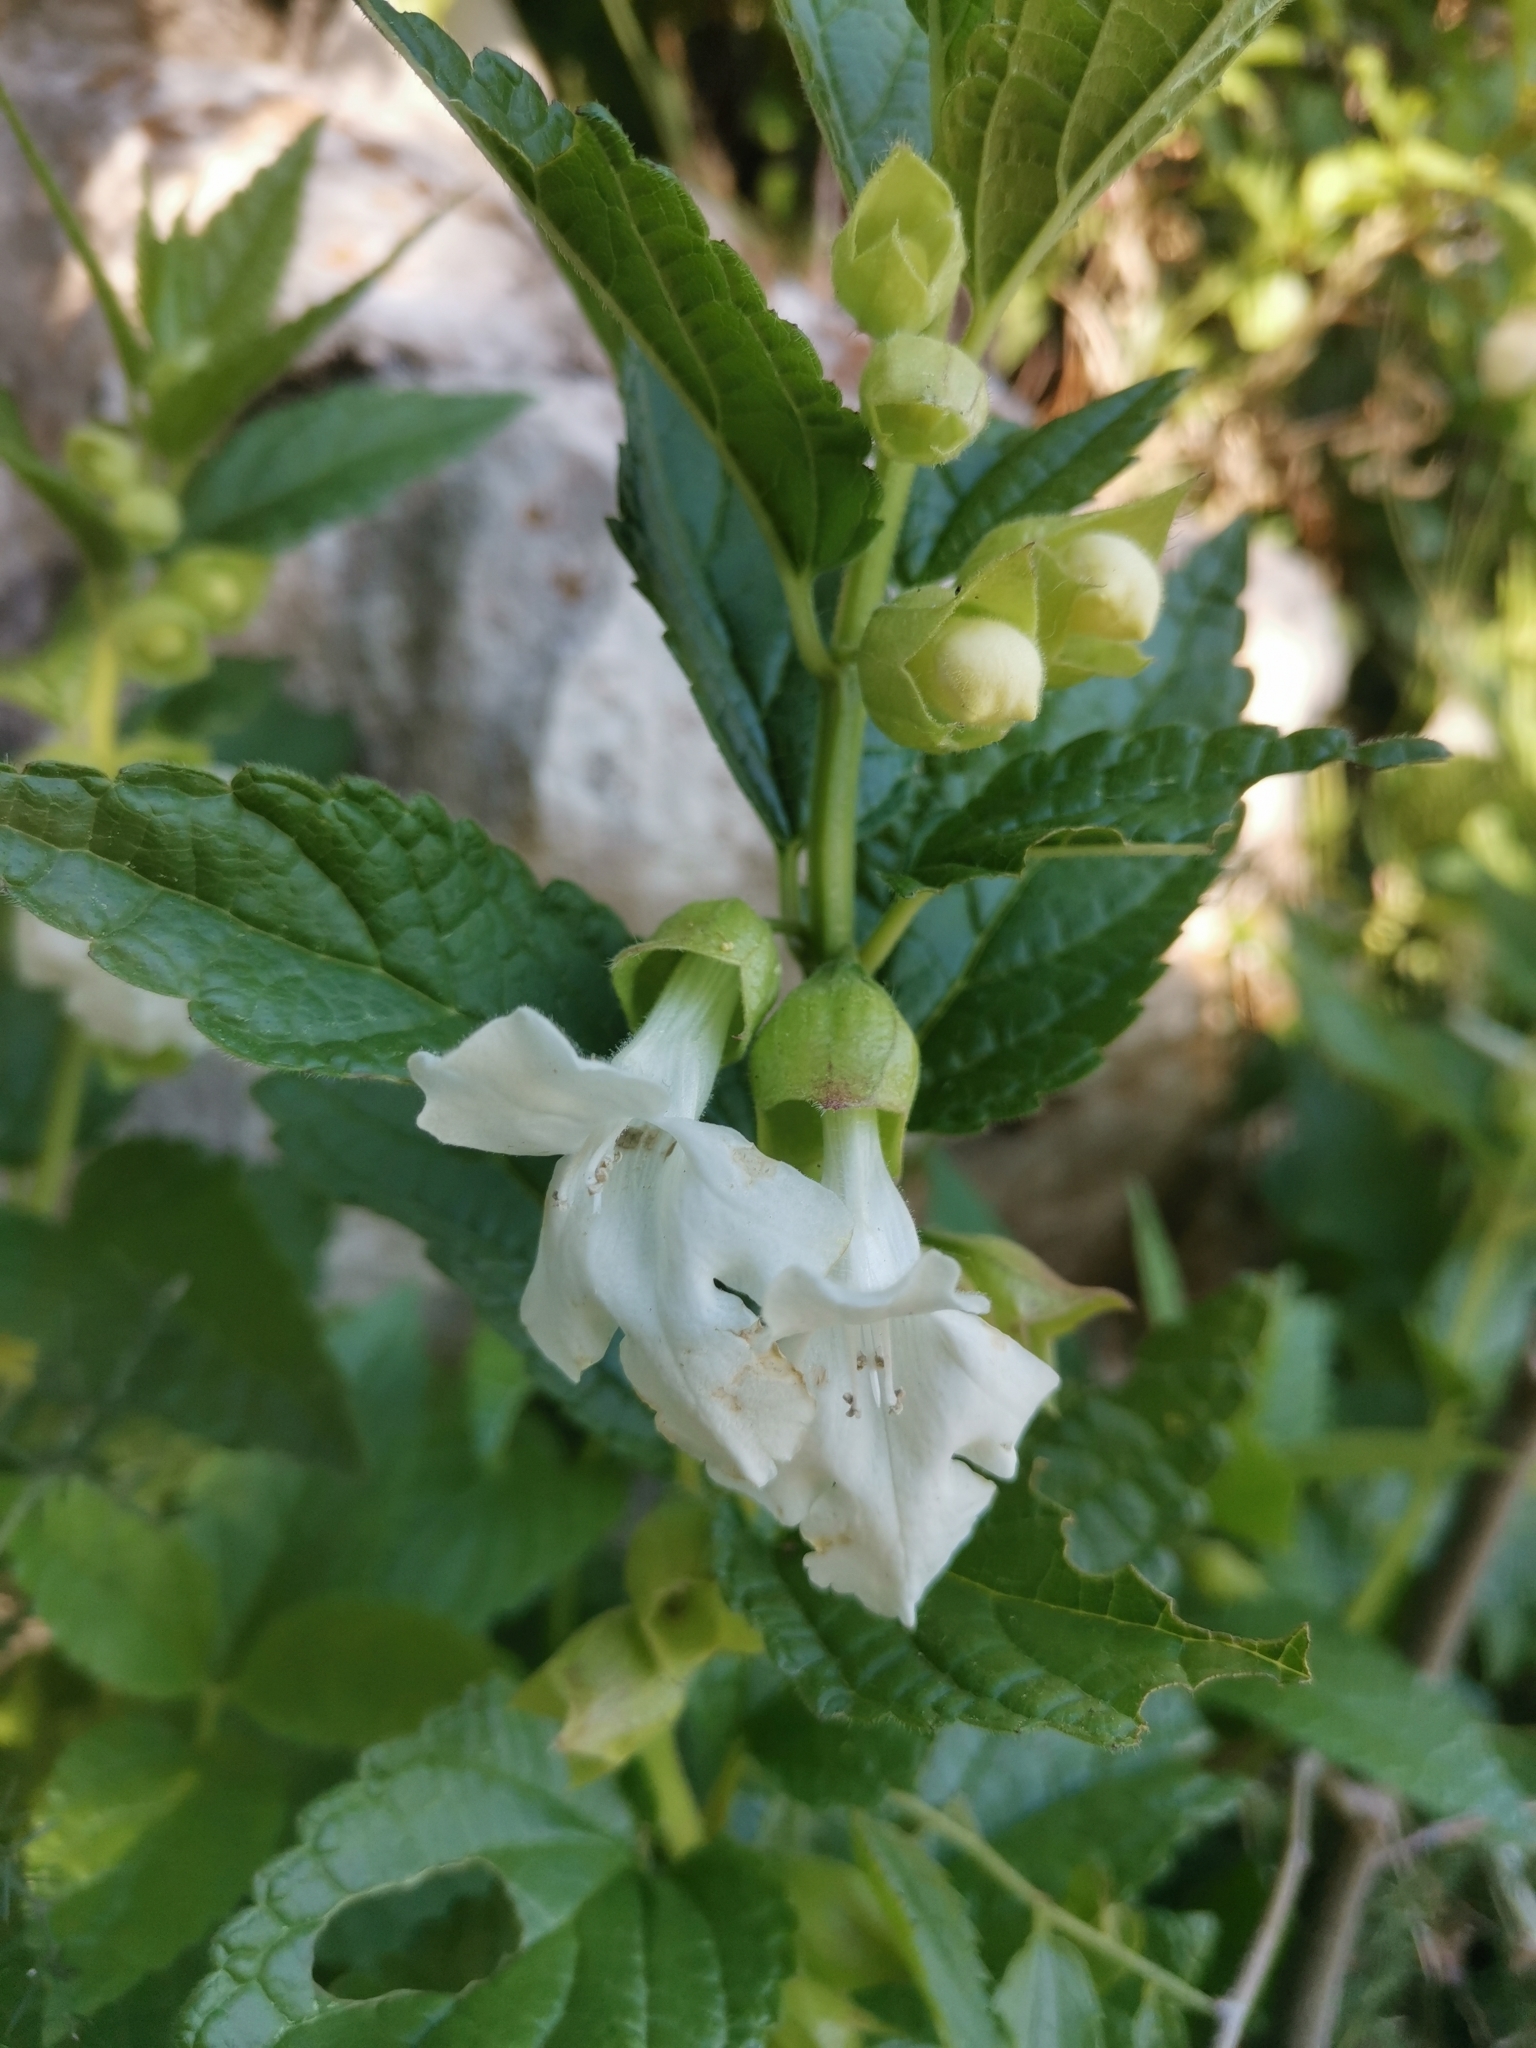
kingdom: Plantae
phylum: Tracheophyta
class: Magnoliopsida
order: Lamiales
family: Lamiaceae
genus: Melittis
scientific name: Melittis melissophyllum
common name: Bastard balm
